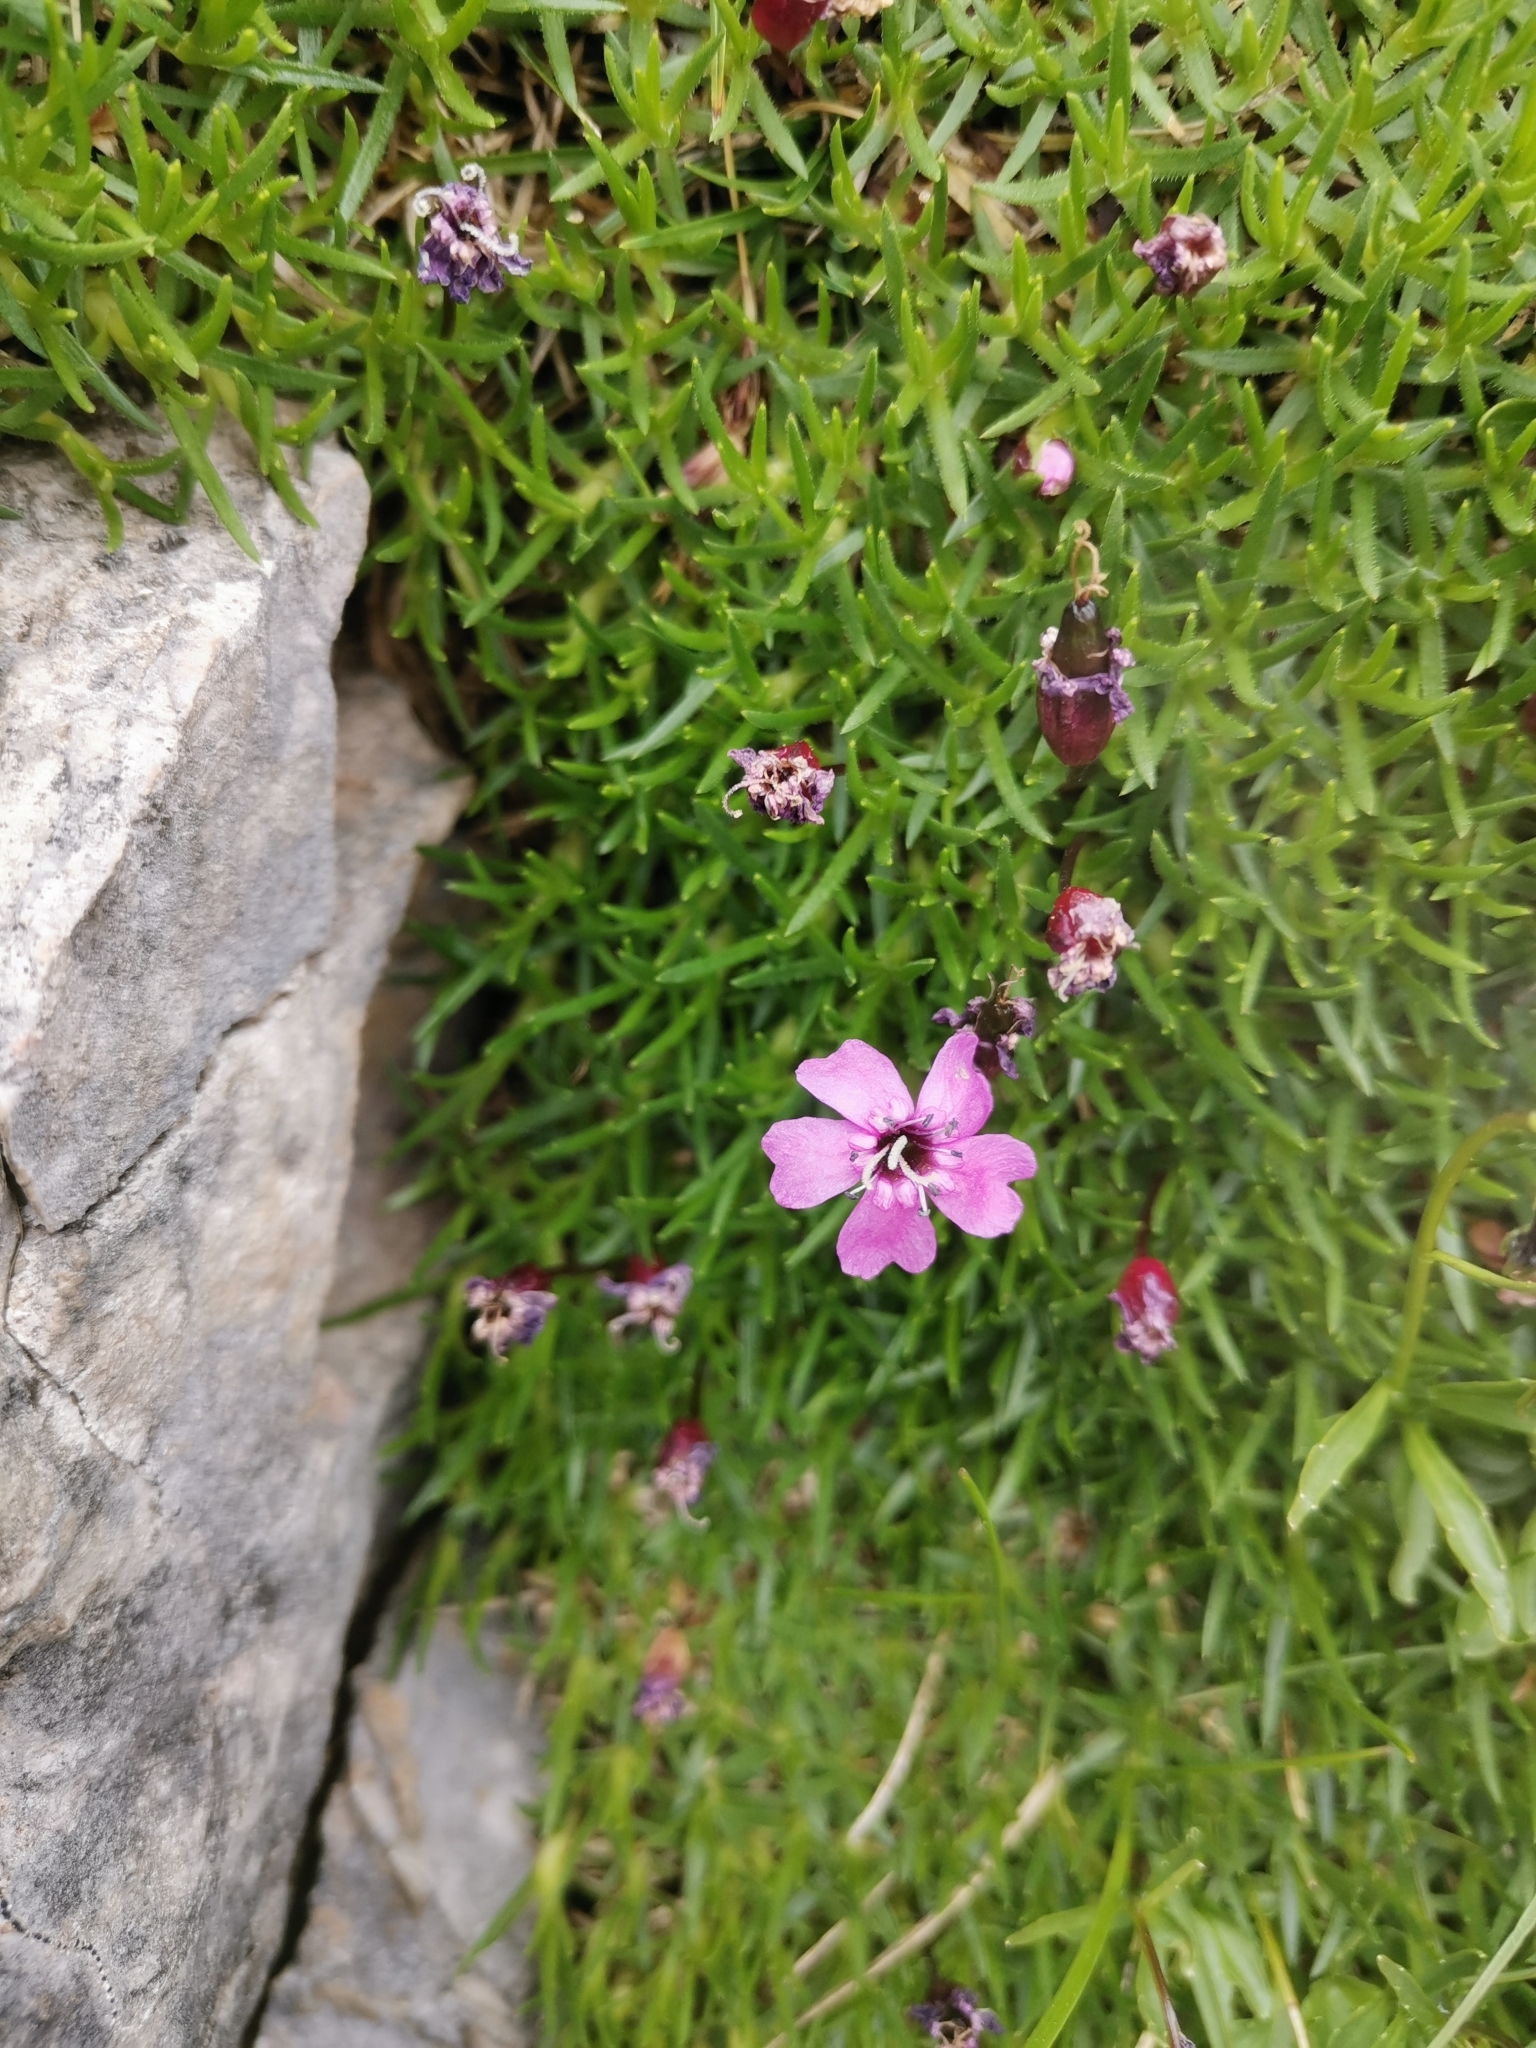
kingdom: Plantae
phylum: Tracheophyta
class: Magnoliopsida
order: Caryophyllales
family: Caryophyllaceae
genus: Silene
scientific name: Silene acaulis
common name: Moss campion
